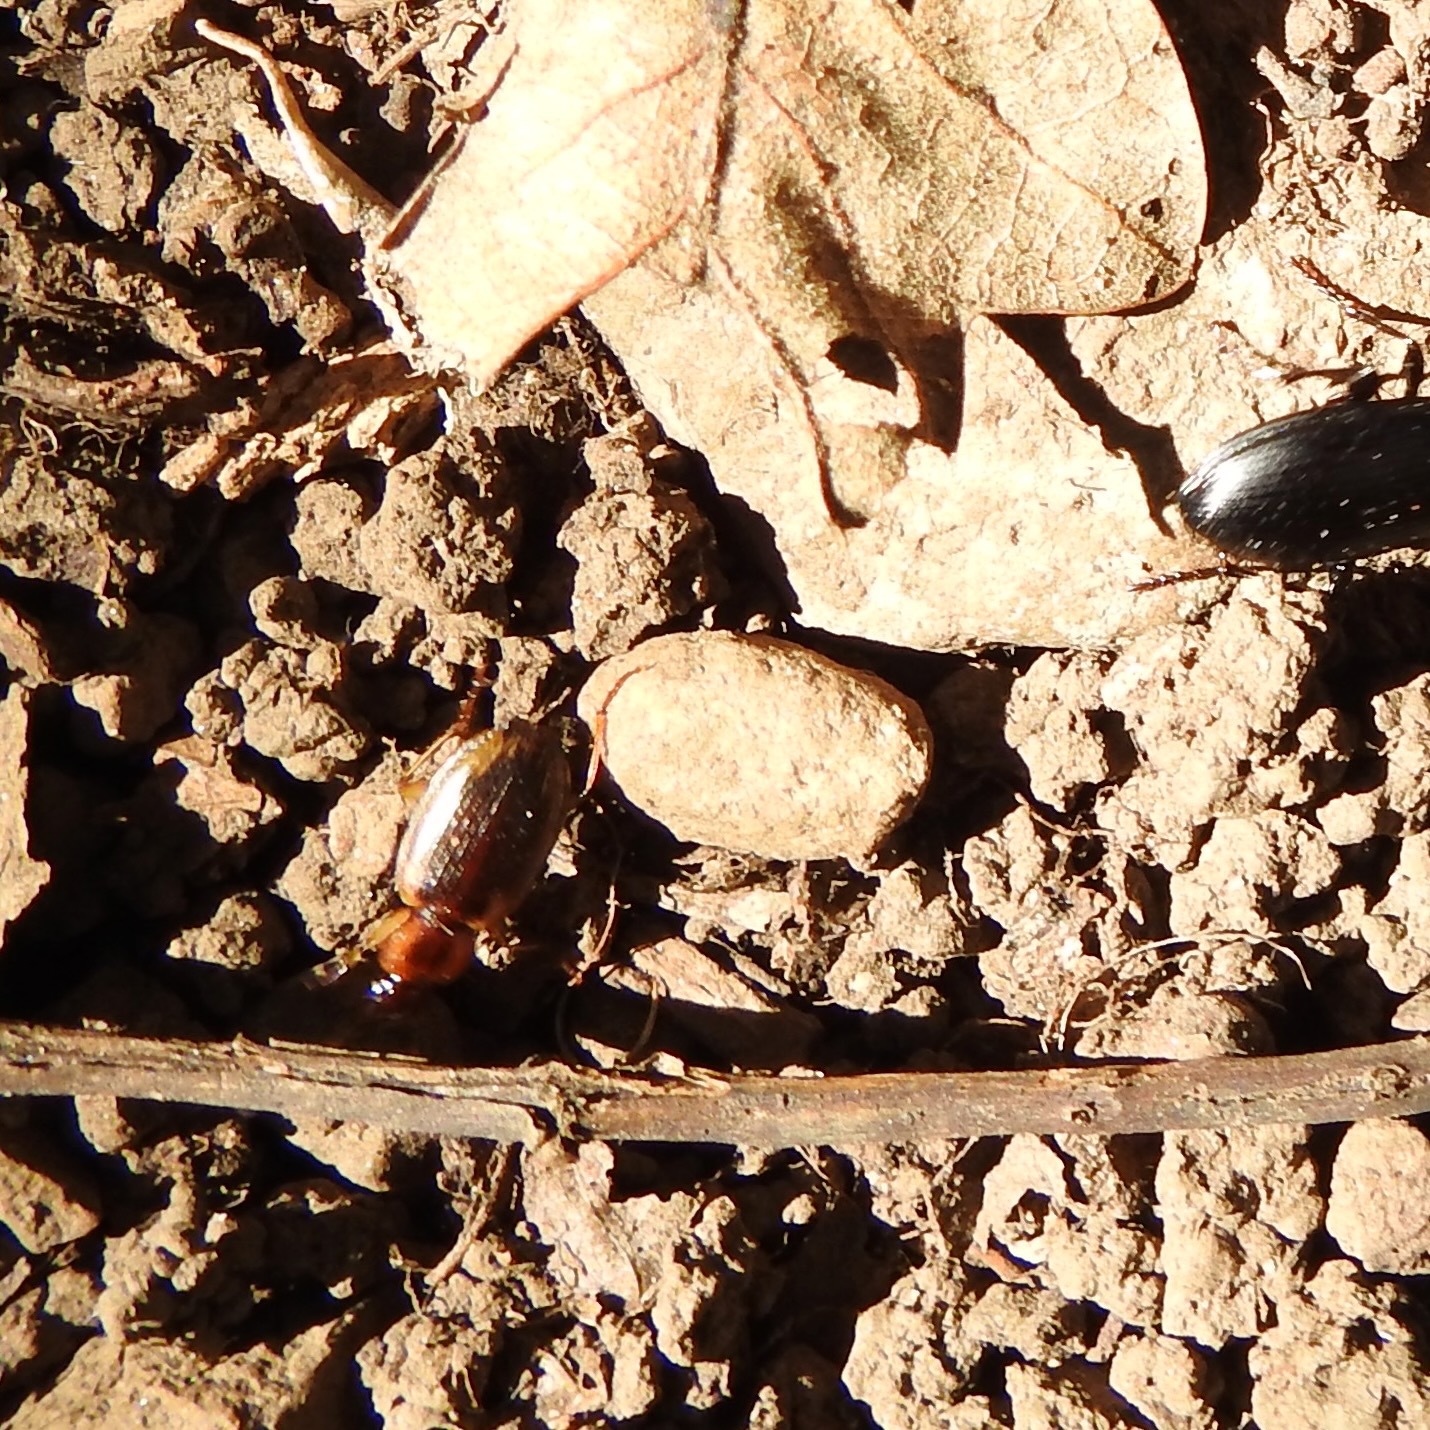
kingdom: Animalia
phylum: Arthropoda
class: Insecta
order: Coleoptera
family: Carabidae
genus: Tanystoma
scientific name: Tanystoma maculicolle
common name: Tule beetle
